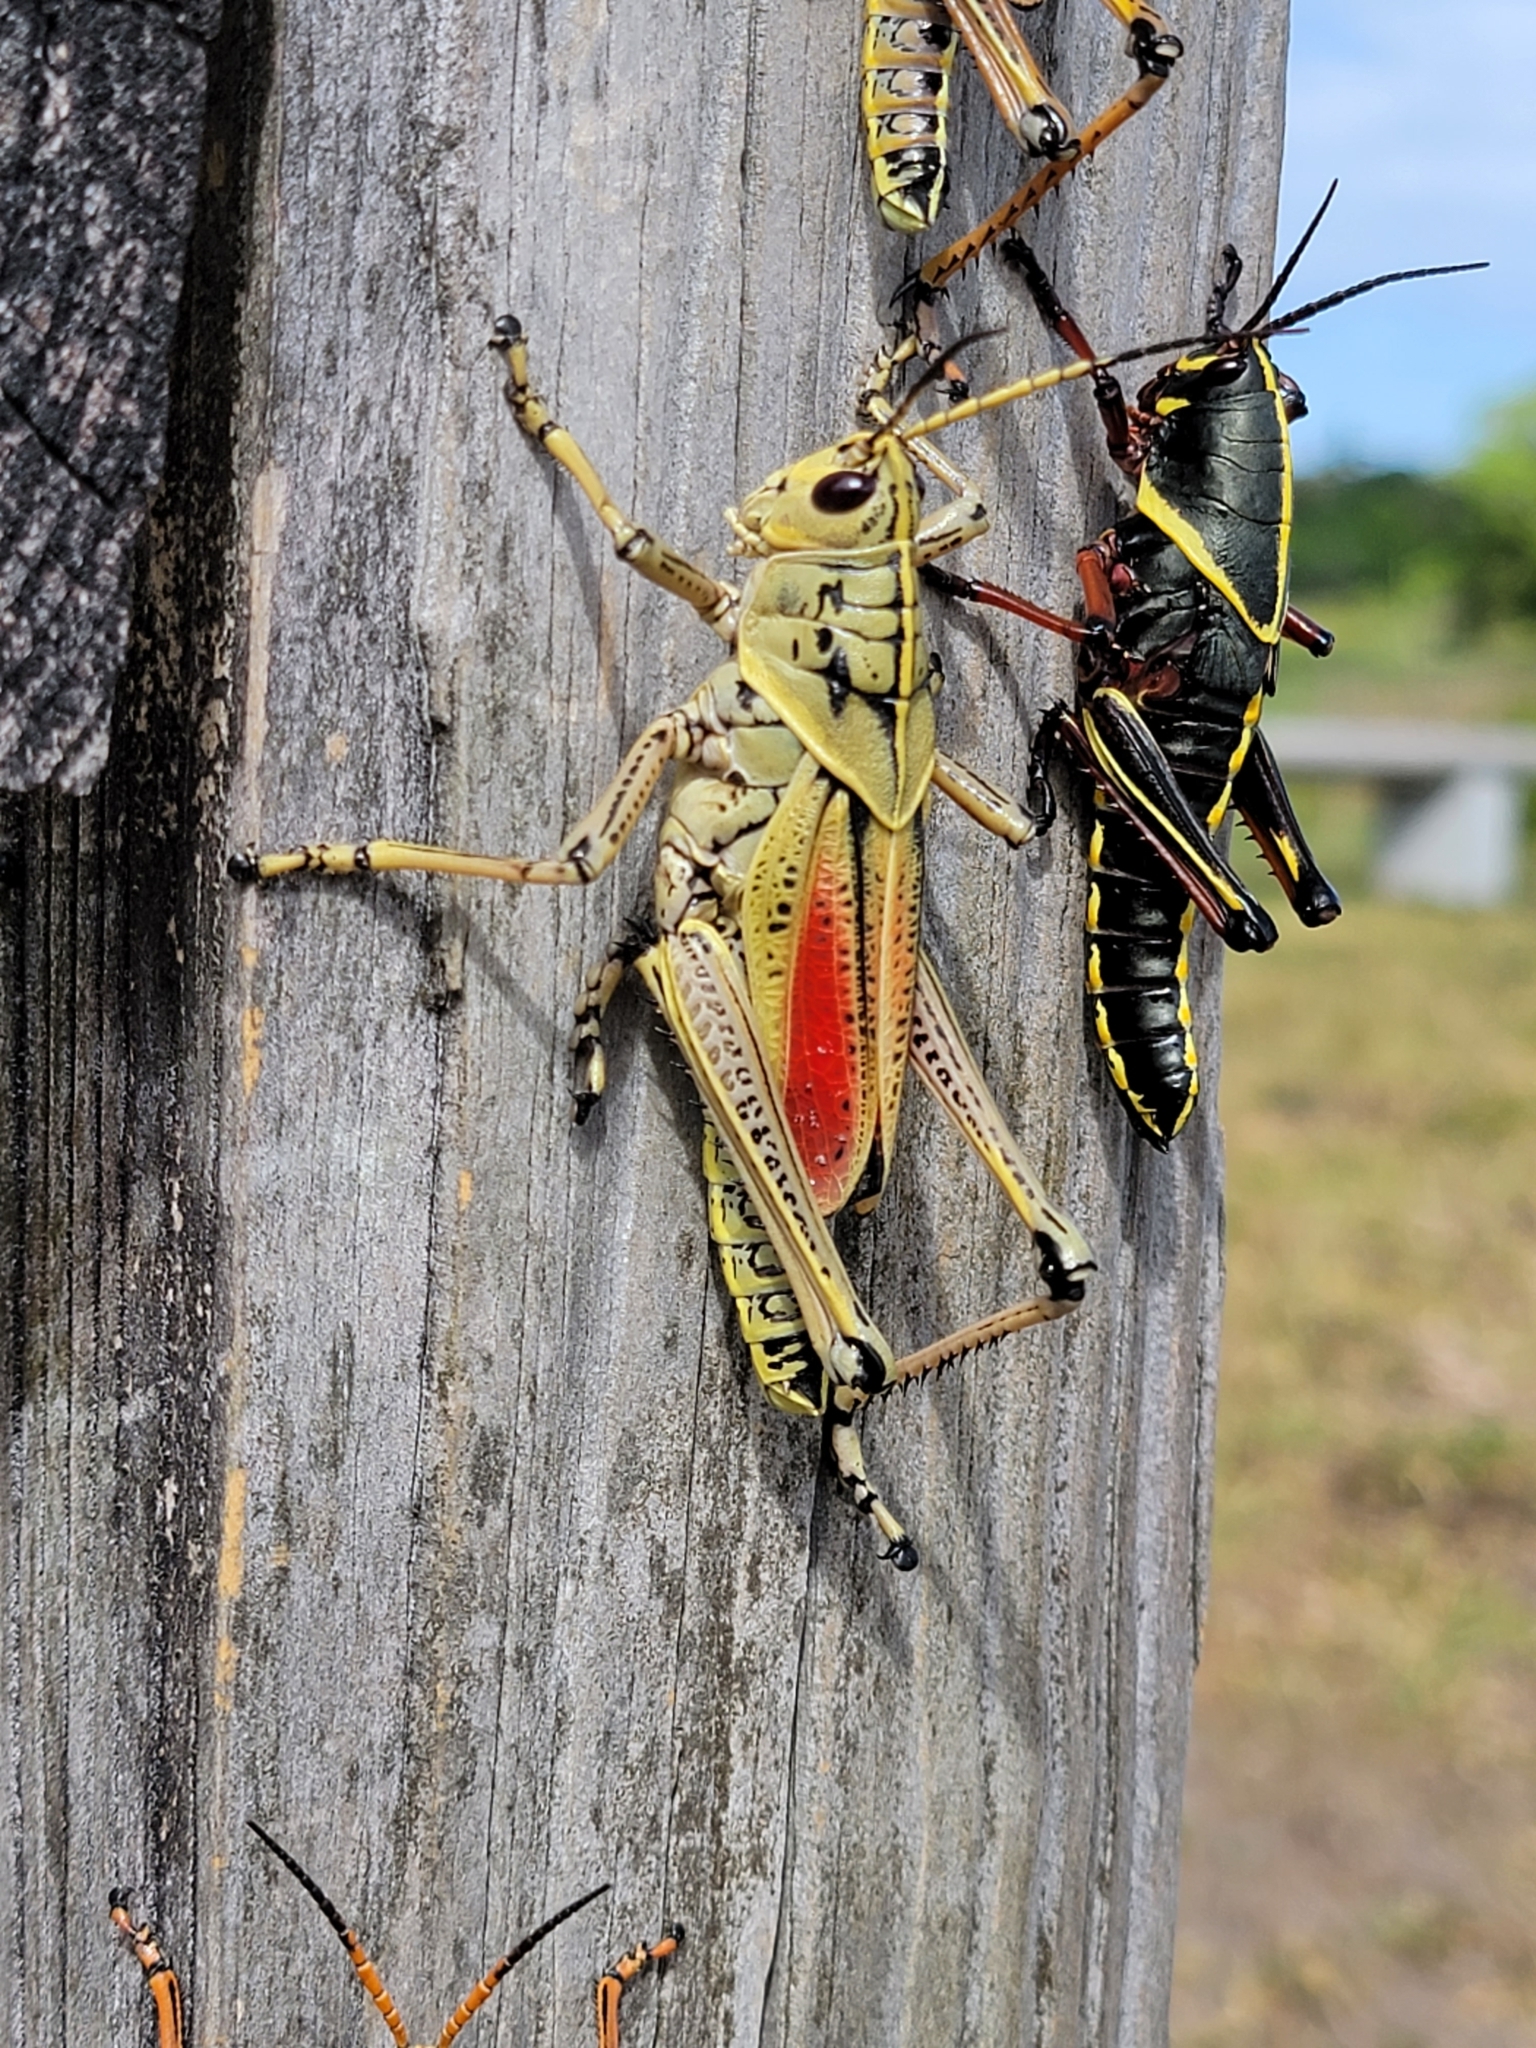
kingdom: Animalia
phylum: Arthropoda
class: Insecta
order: Orthoptera
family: Romaleidae
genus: Romalea
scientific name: Romalea microptera
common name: Eastern lubber grasshopper
